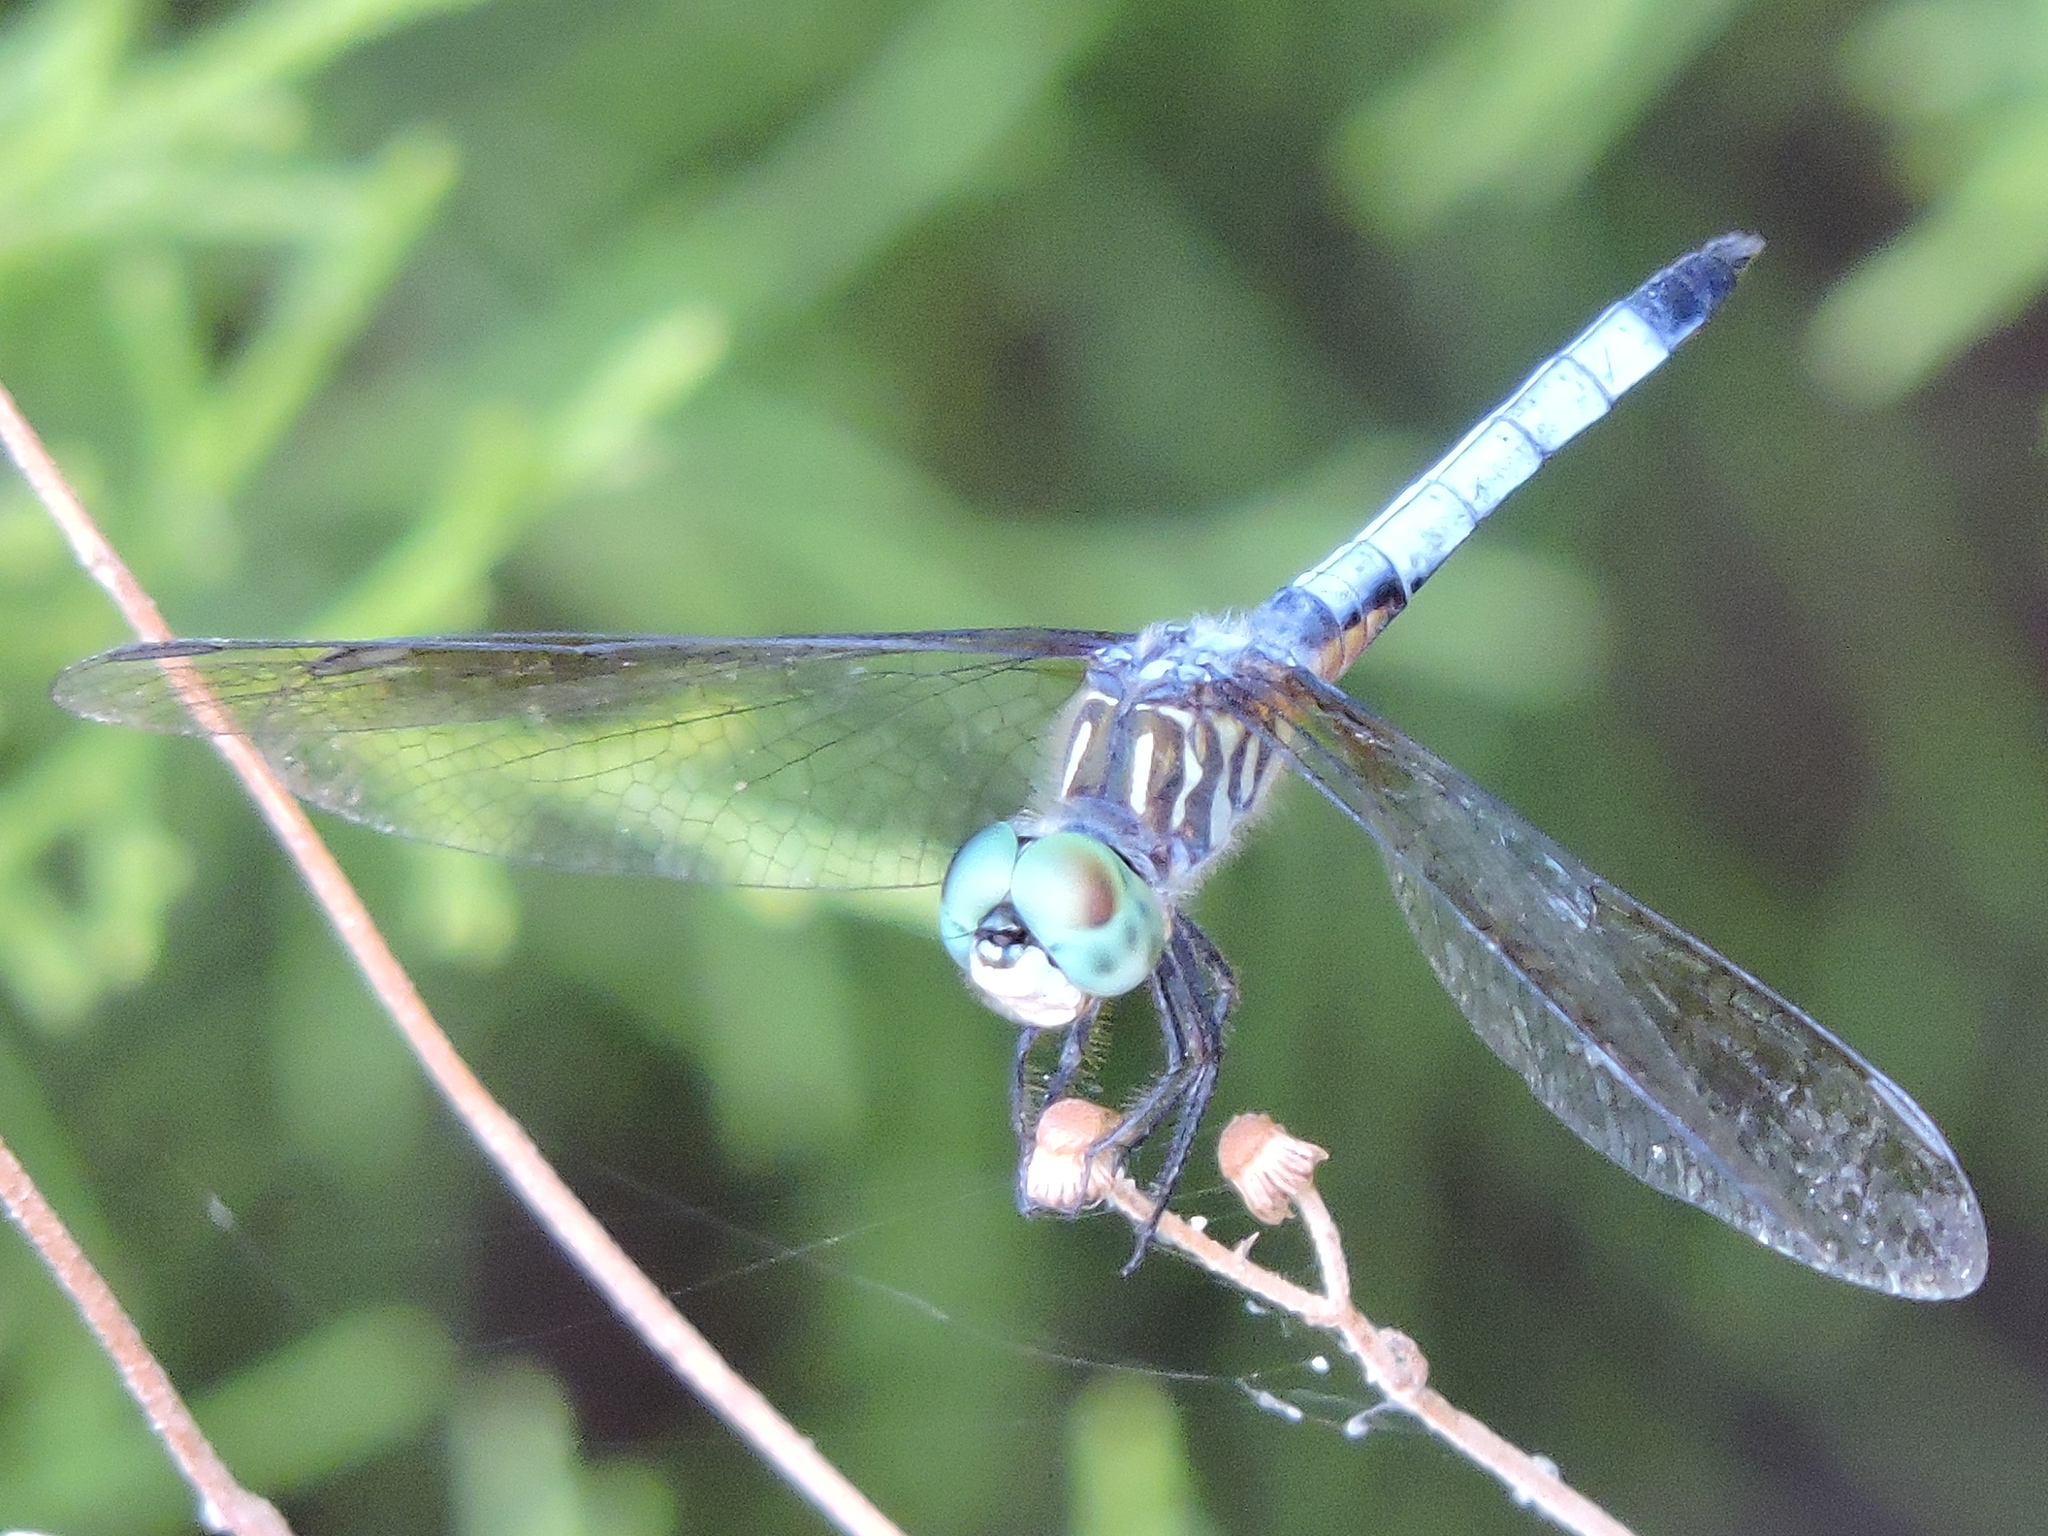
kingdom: Animalia
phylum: Arthropoda
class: Insecta
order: Odonata
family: Libellulidae
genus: Pachydiplax
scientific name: Pachydiplax longipennis
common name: Blue dasher
